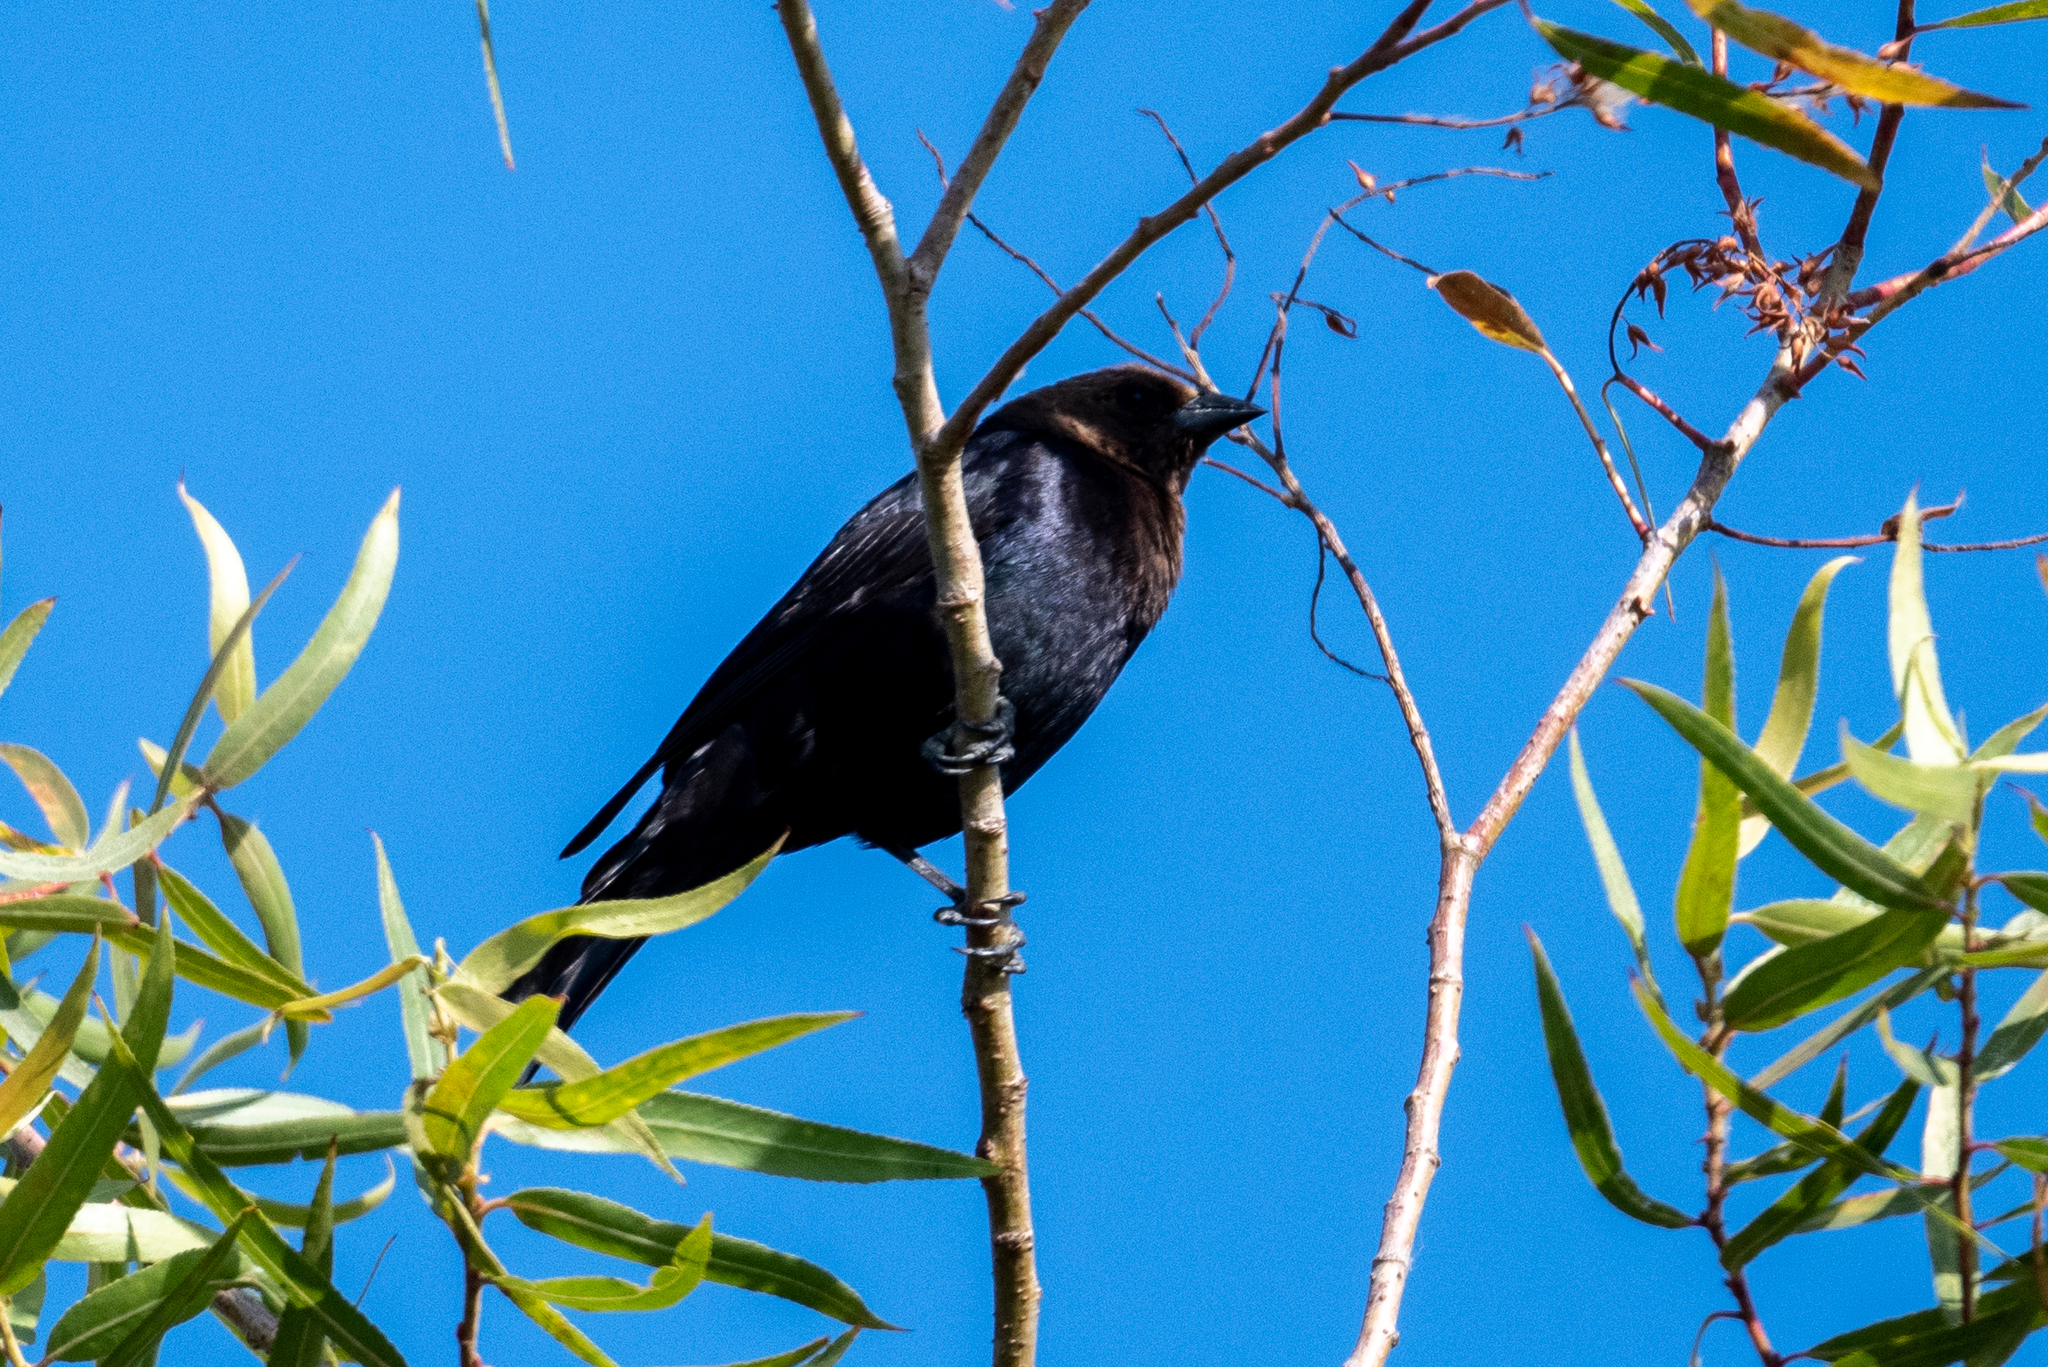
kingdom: Animalia
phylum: Chordata
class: Aves
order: Passeriformes
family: Icteridae
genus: Molothrus
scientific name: Molothrus ater
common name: Brown-headed cowbird
